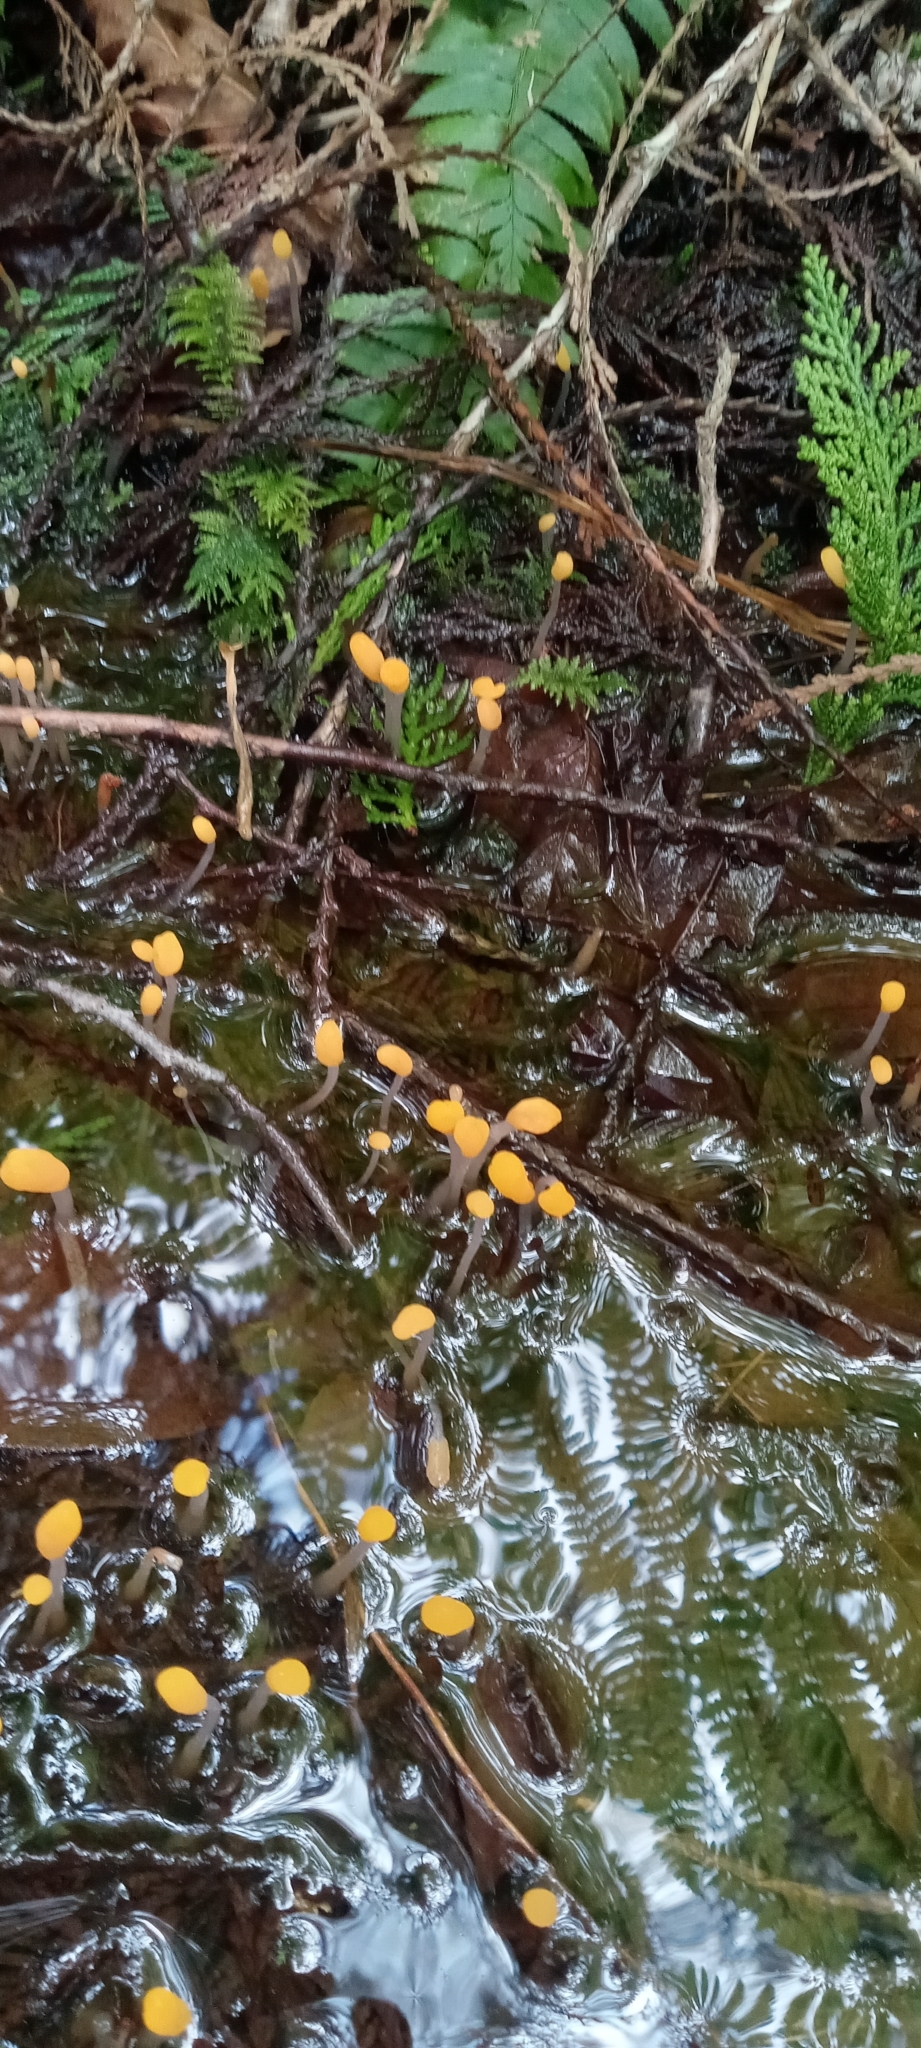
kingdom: Fungi
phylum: Ascomycota
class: Leotiomycetes
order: Helotiales
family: Sclerotiniaceae
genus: Mitrula
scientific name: Mitrula elegans
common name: Swamp beacon
